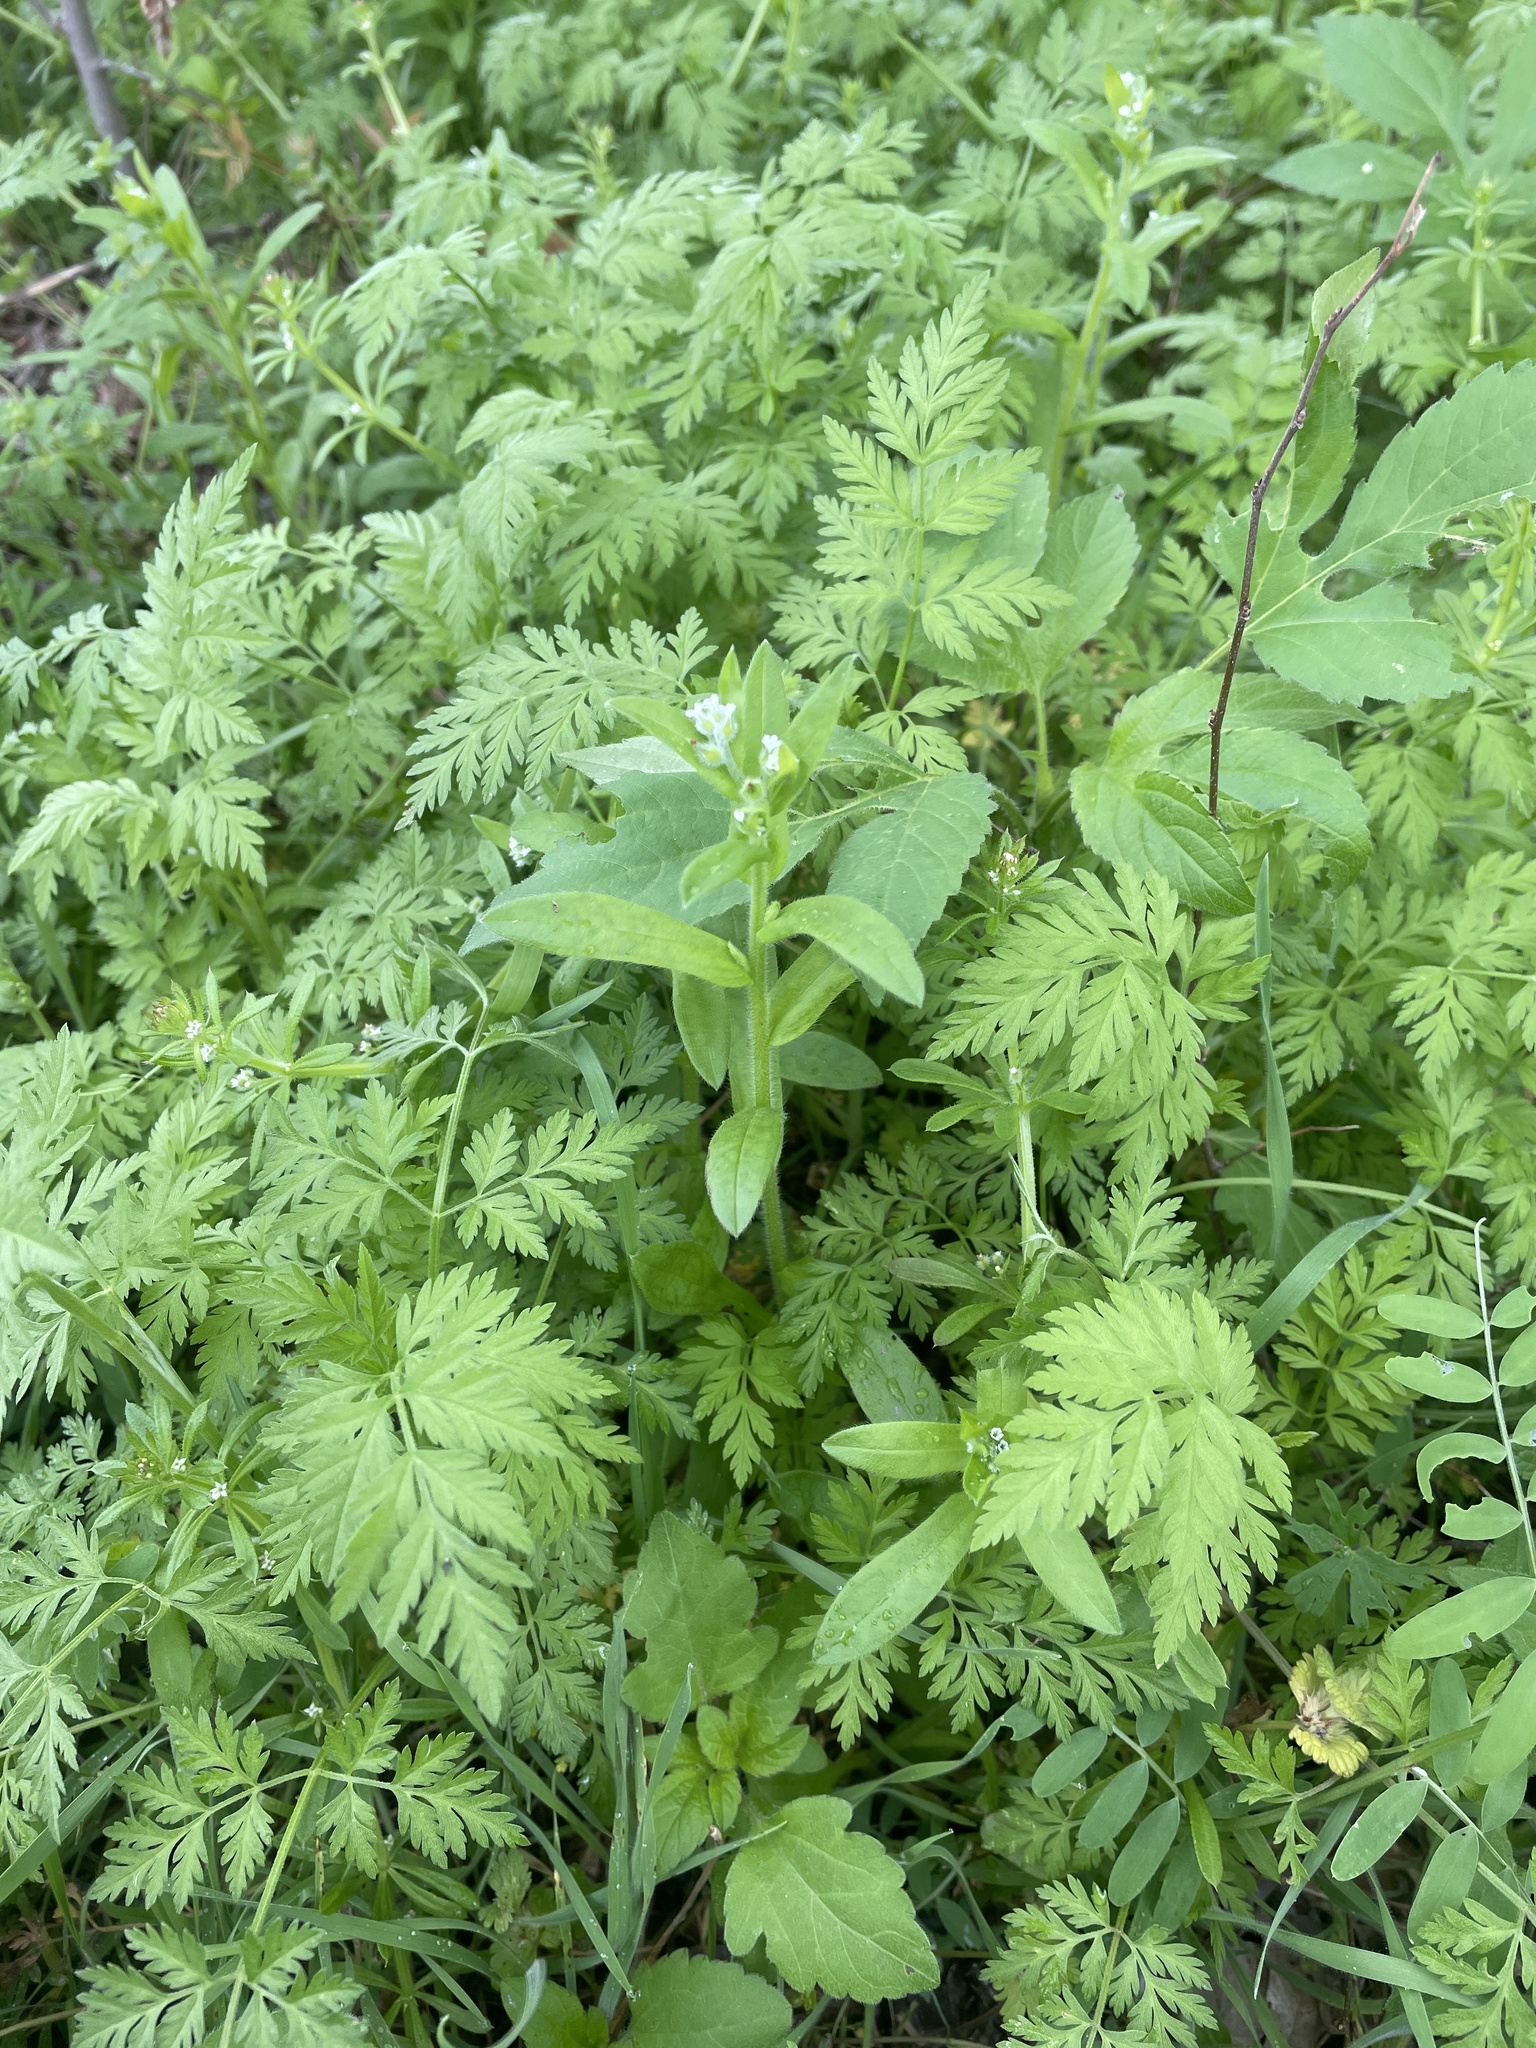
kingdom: Plantae
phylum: Tracheophyta
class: Magnoliopsida
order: Boraginales
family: Boraginaceae
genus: Myosotis
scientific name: Myosotis macrosperma
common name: Large-seed forget-me-not
